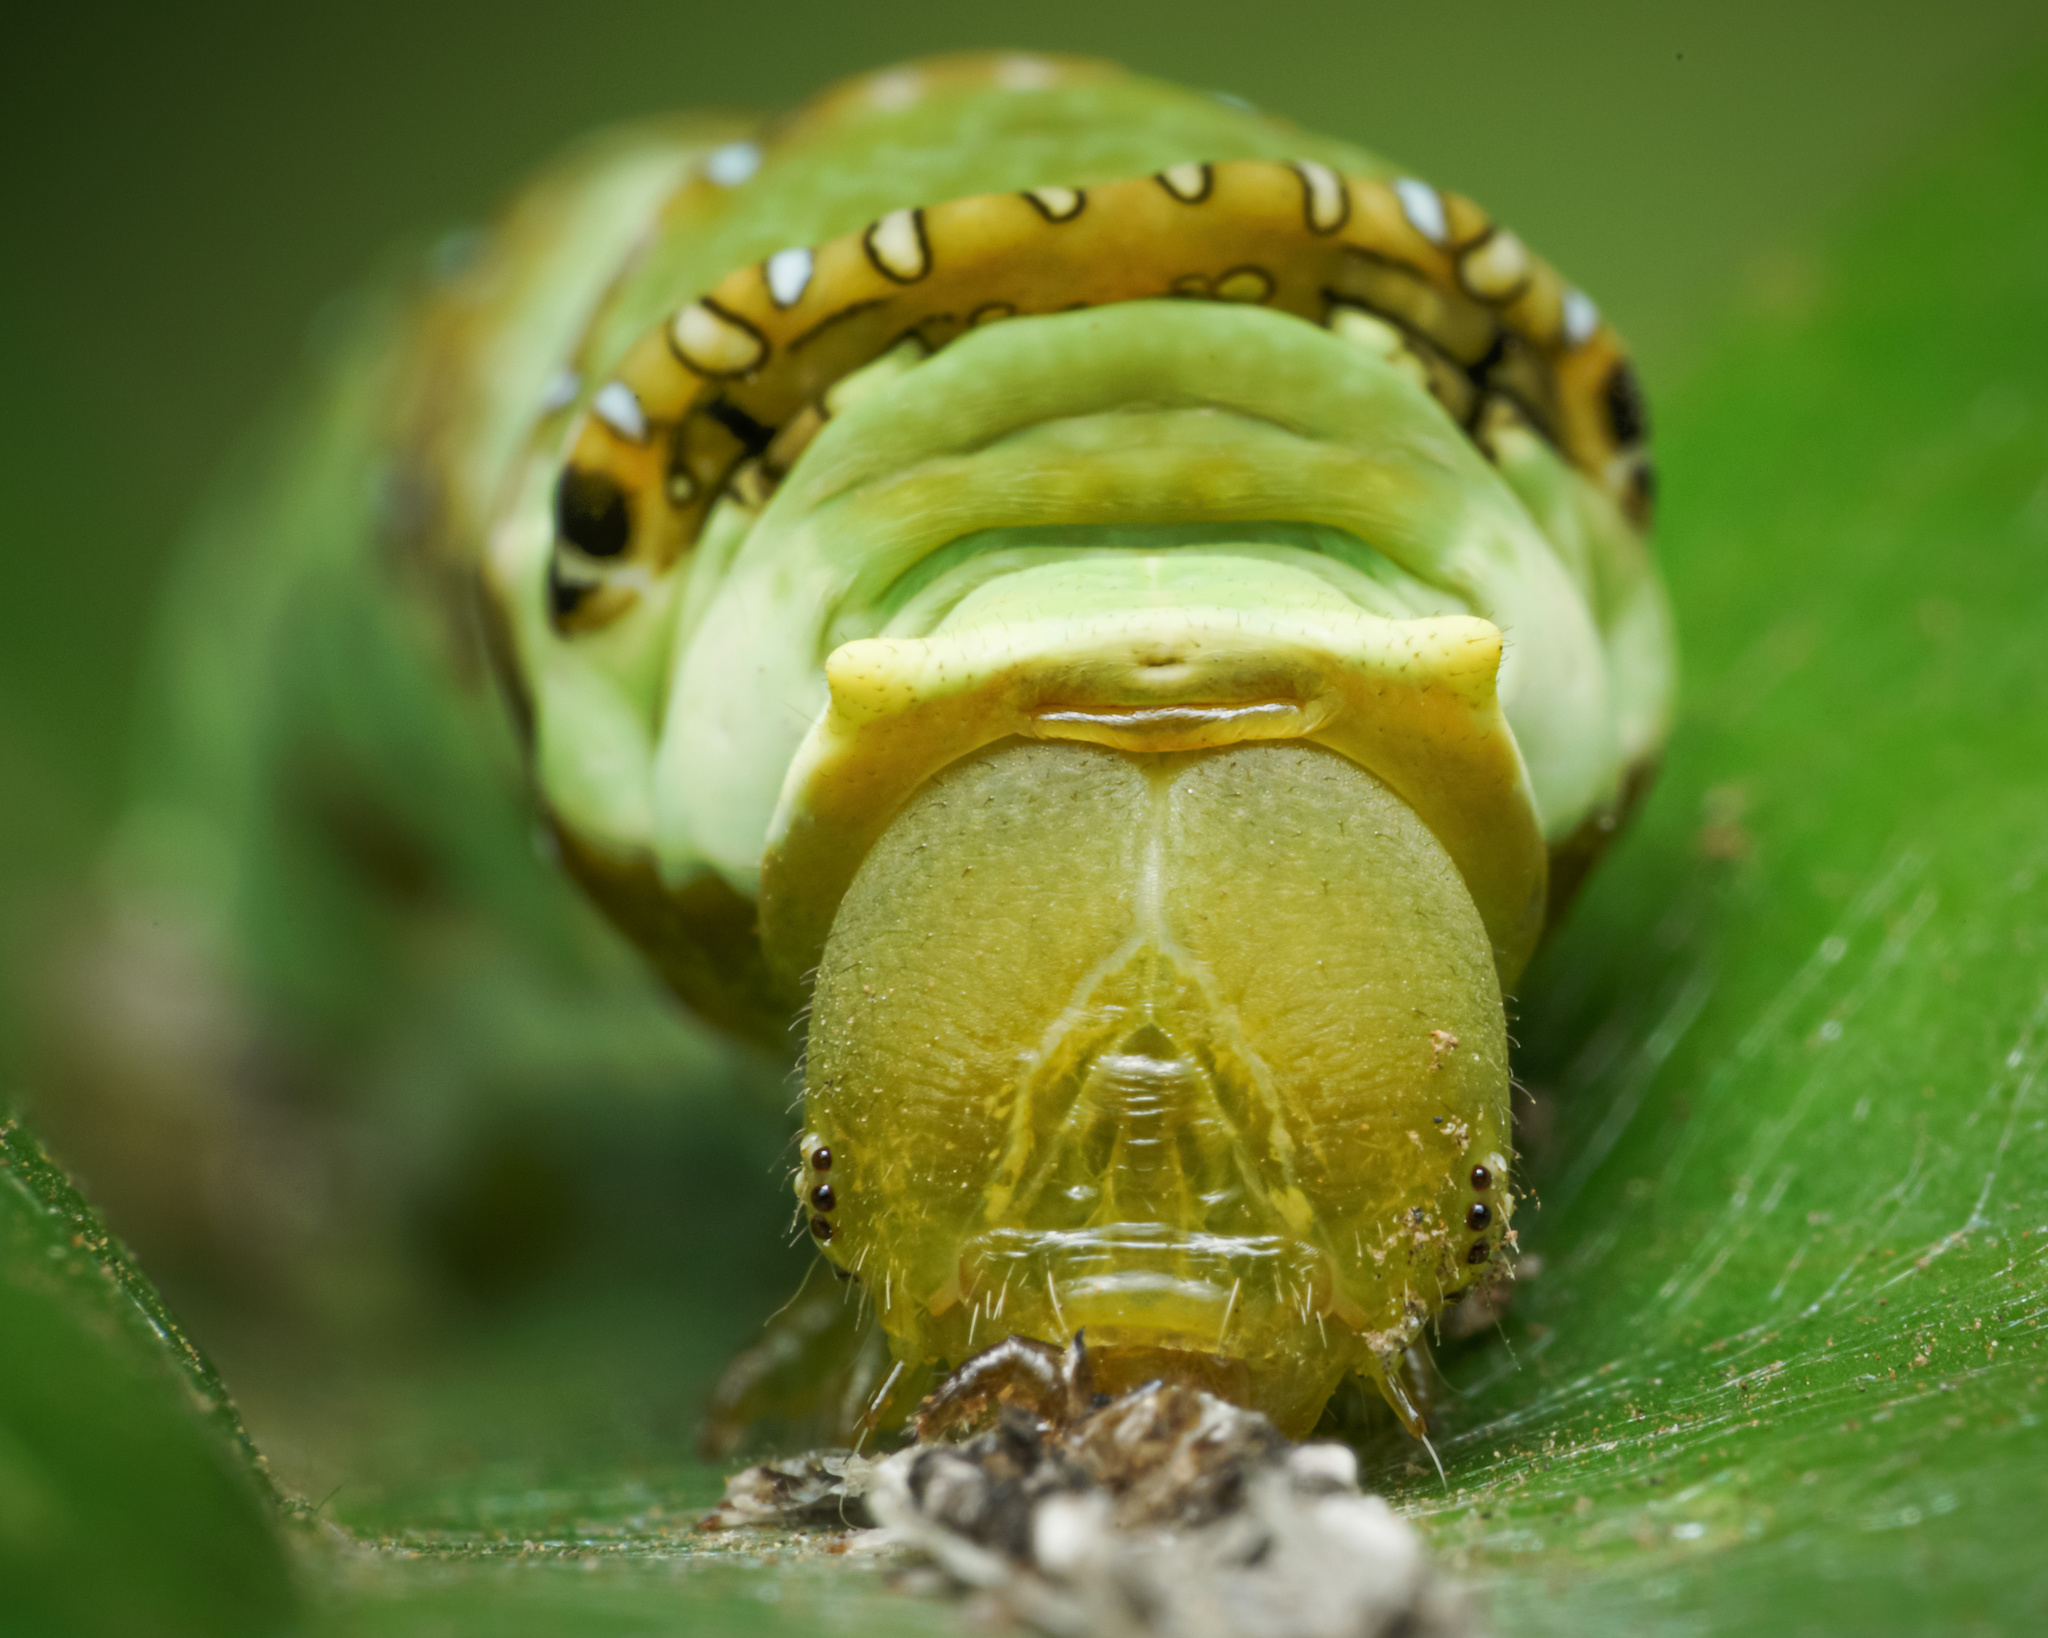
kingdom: Animalia
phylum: Arthropoda
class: Insecta
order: Lepidoptera
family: Papilionidae
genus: Papilio
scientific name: Papilio demoleus
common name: Lime butterfly
